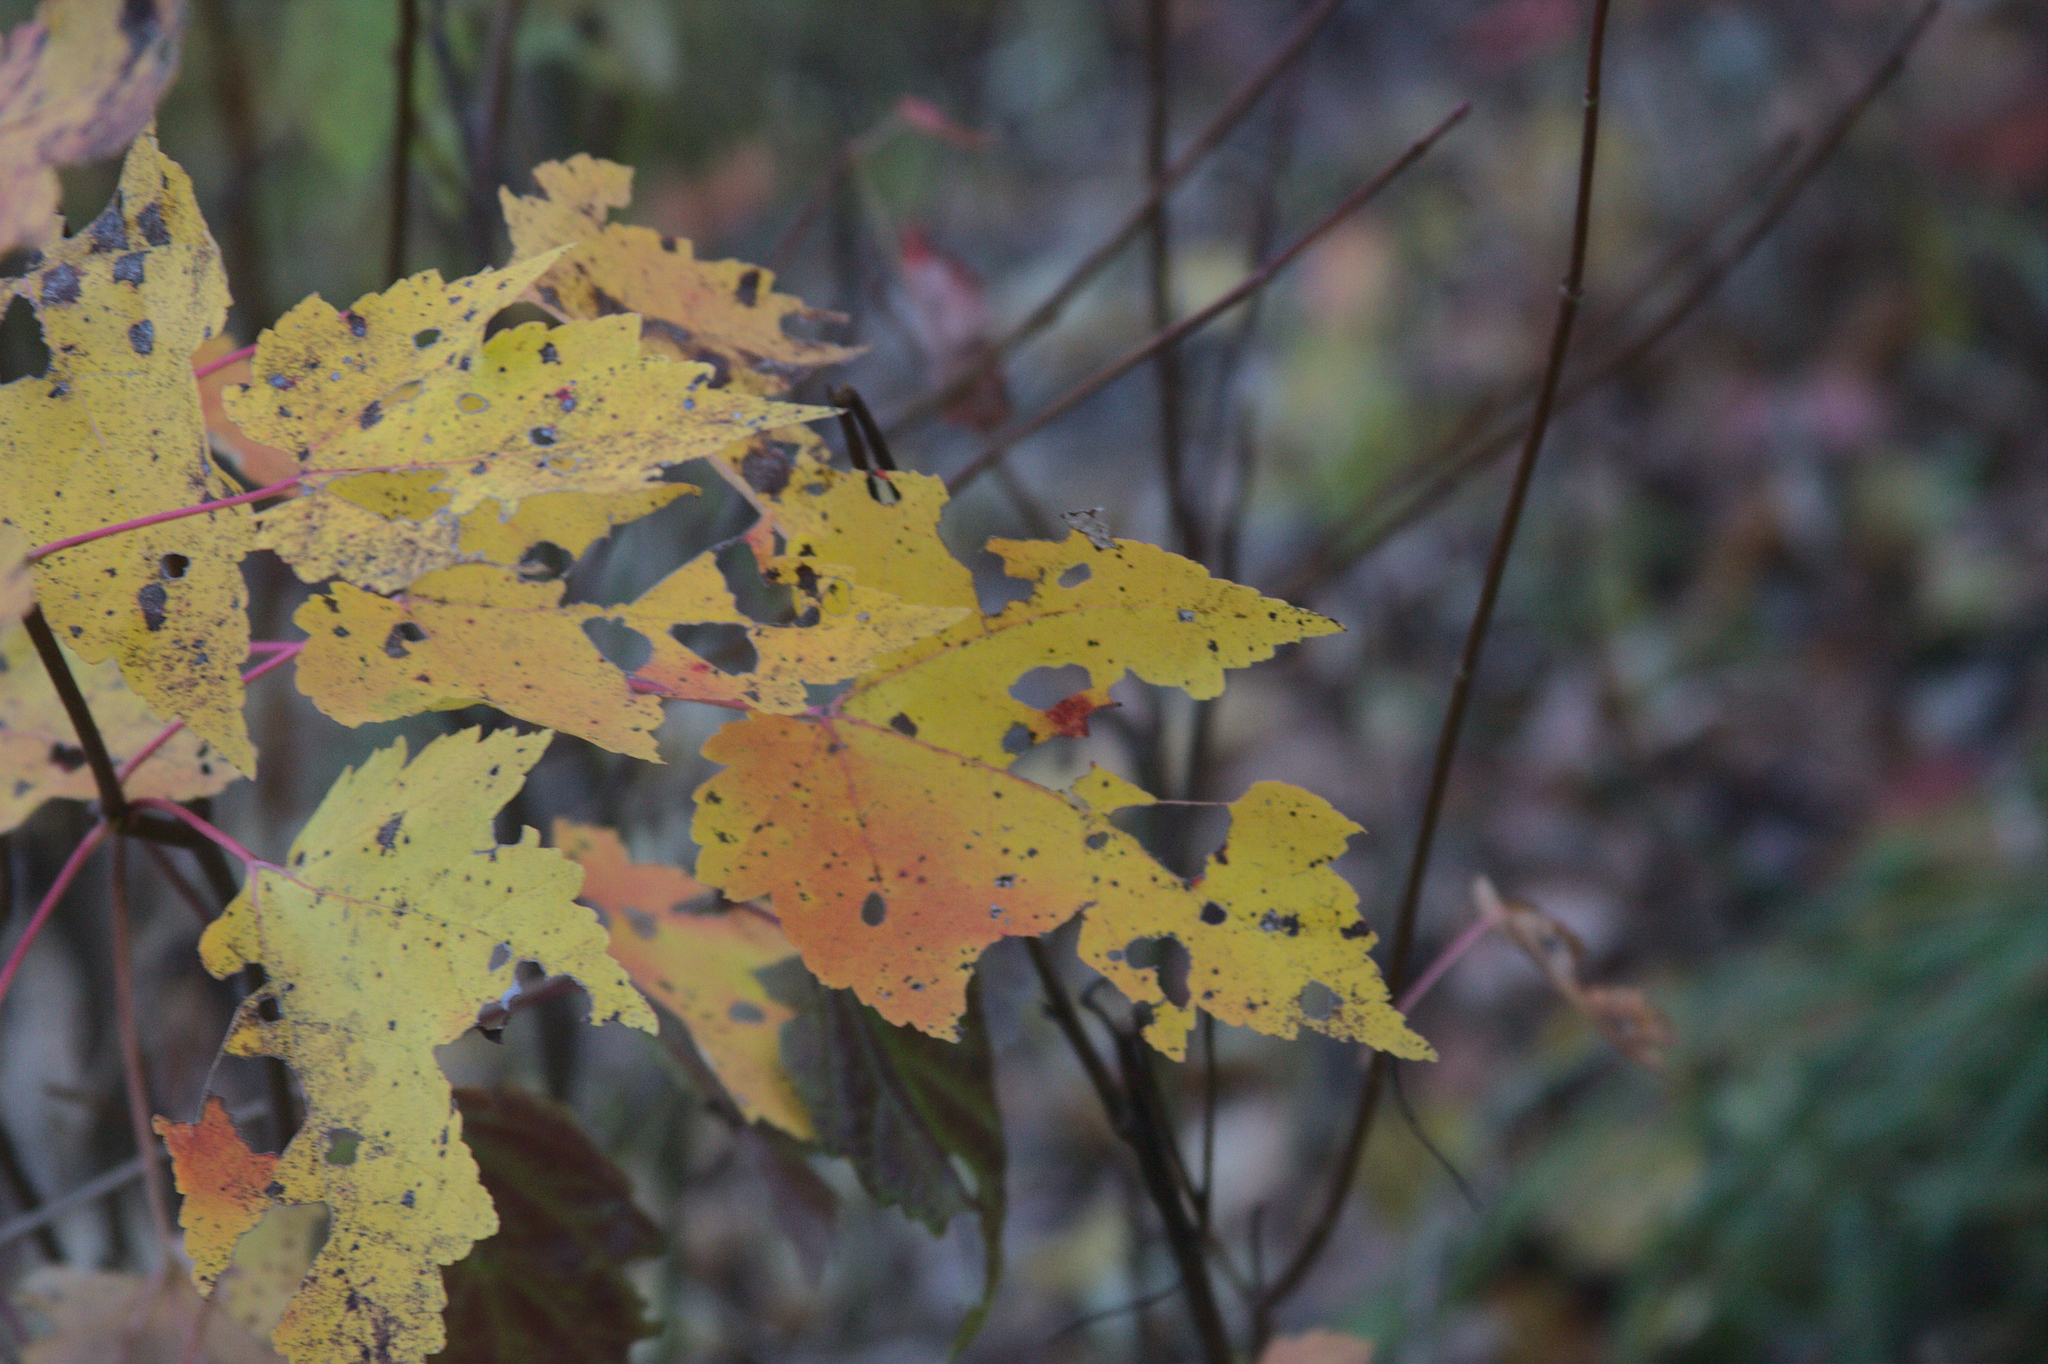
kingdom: Plantae
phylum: Tracheophyta
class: Magnoliopsida
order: Sapindales
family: Sapindaceae
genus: Acer
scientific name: Acer rubrum
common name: Red maple
